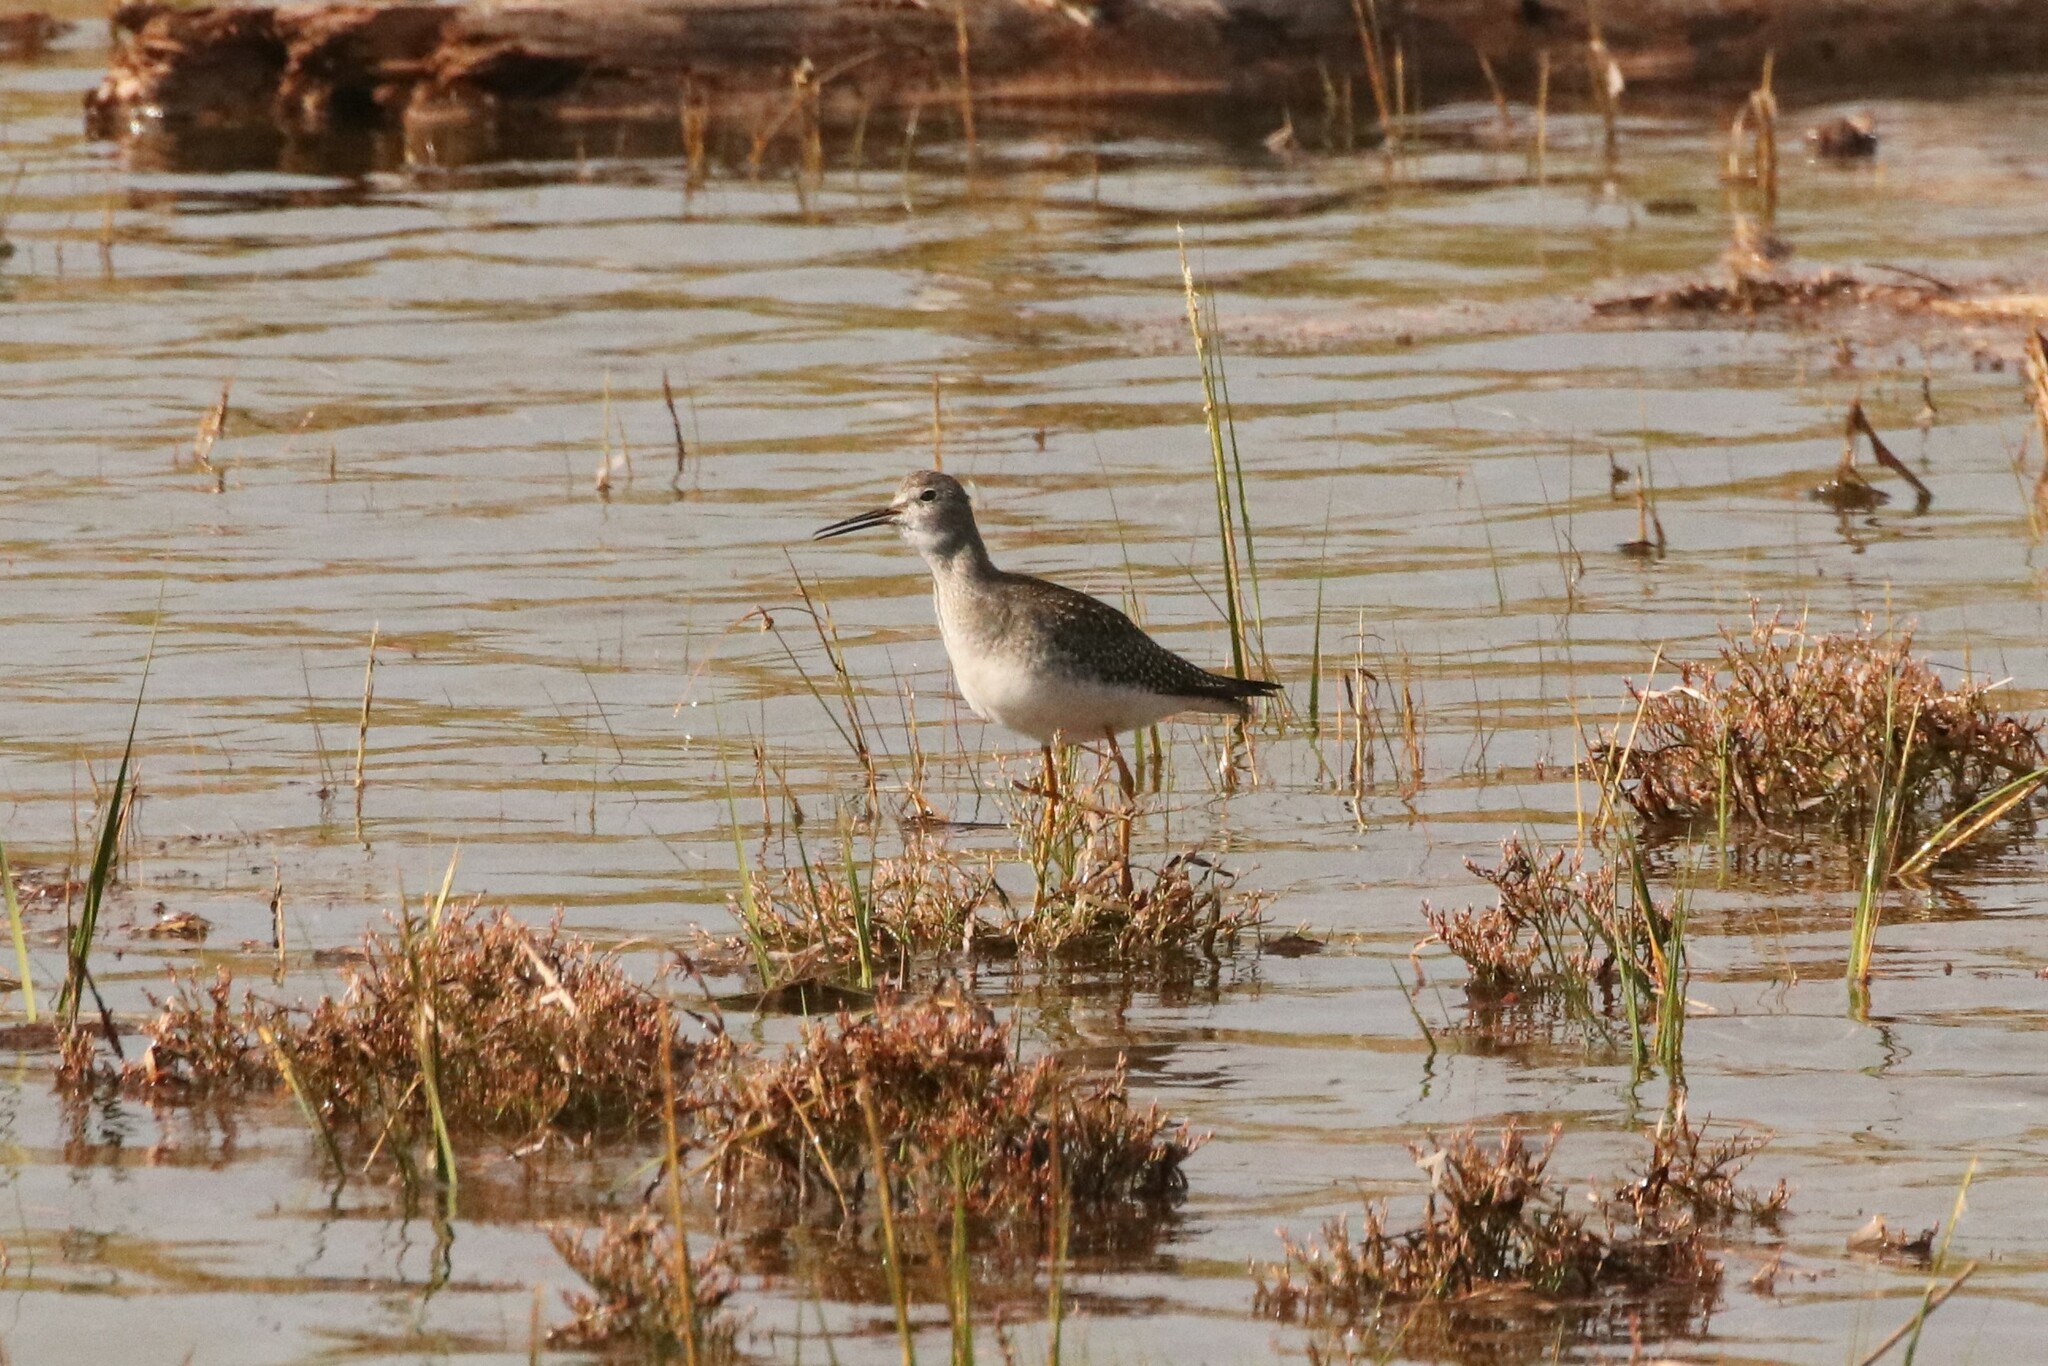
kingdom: Animalia
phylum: Chordata
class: Aves
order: Charadriiformes
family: Scolopacidae
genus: Tringa
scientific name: Tringa flavipes
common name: Lesser yellowlegs
